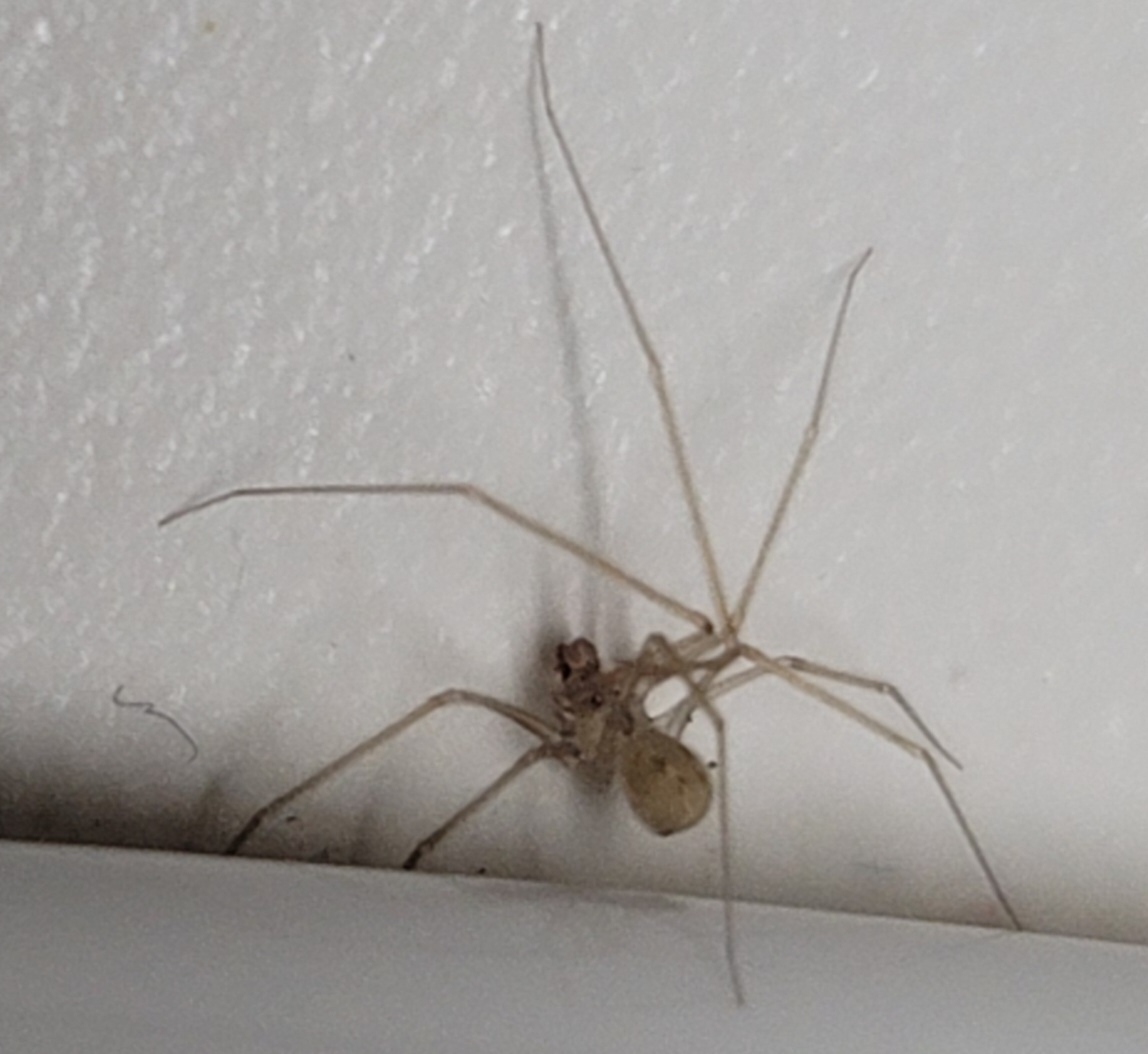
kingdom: Animalia
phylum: Arthropoda
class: Arachnida
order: Araneae
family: Pholcidae
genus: Spermophora
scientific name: Spermophora senoculata
